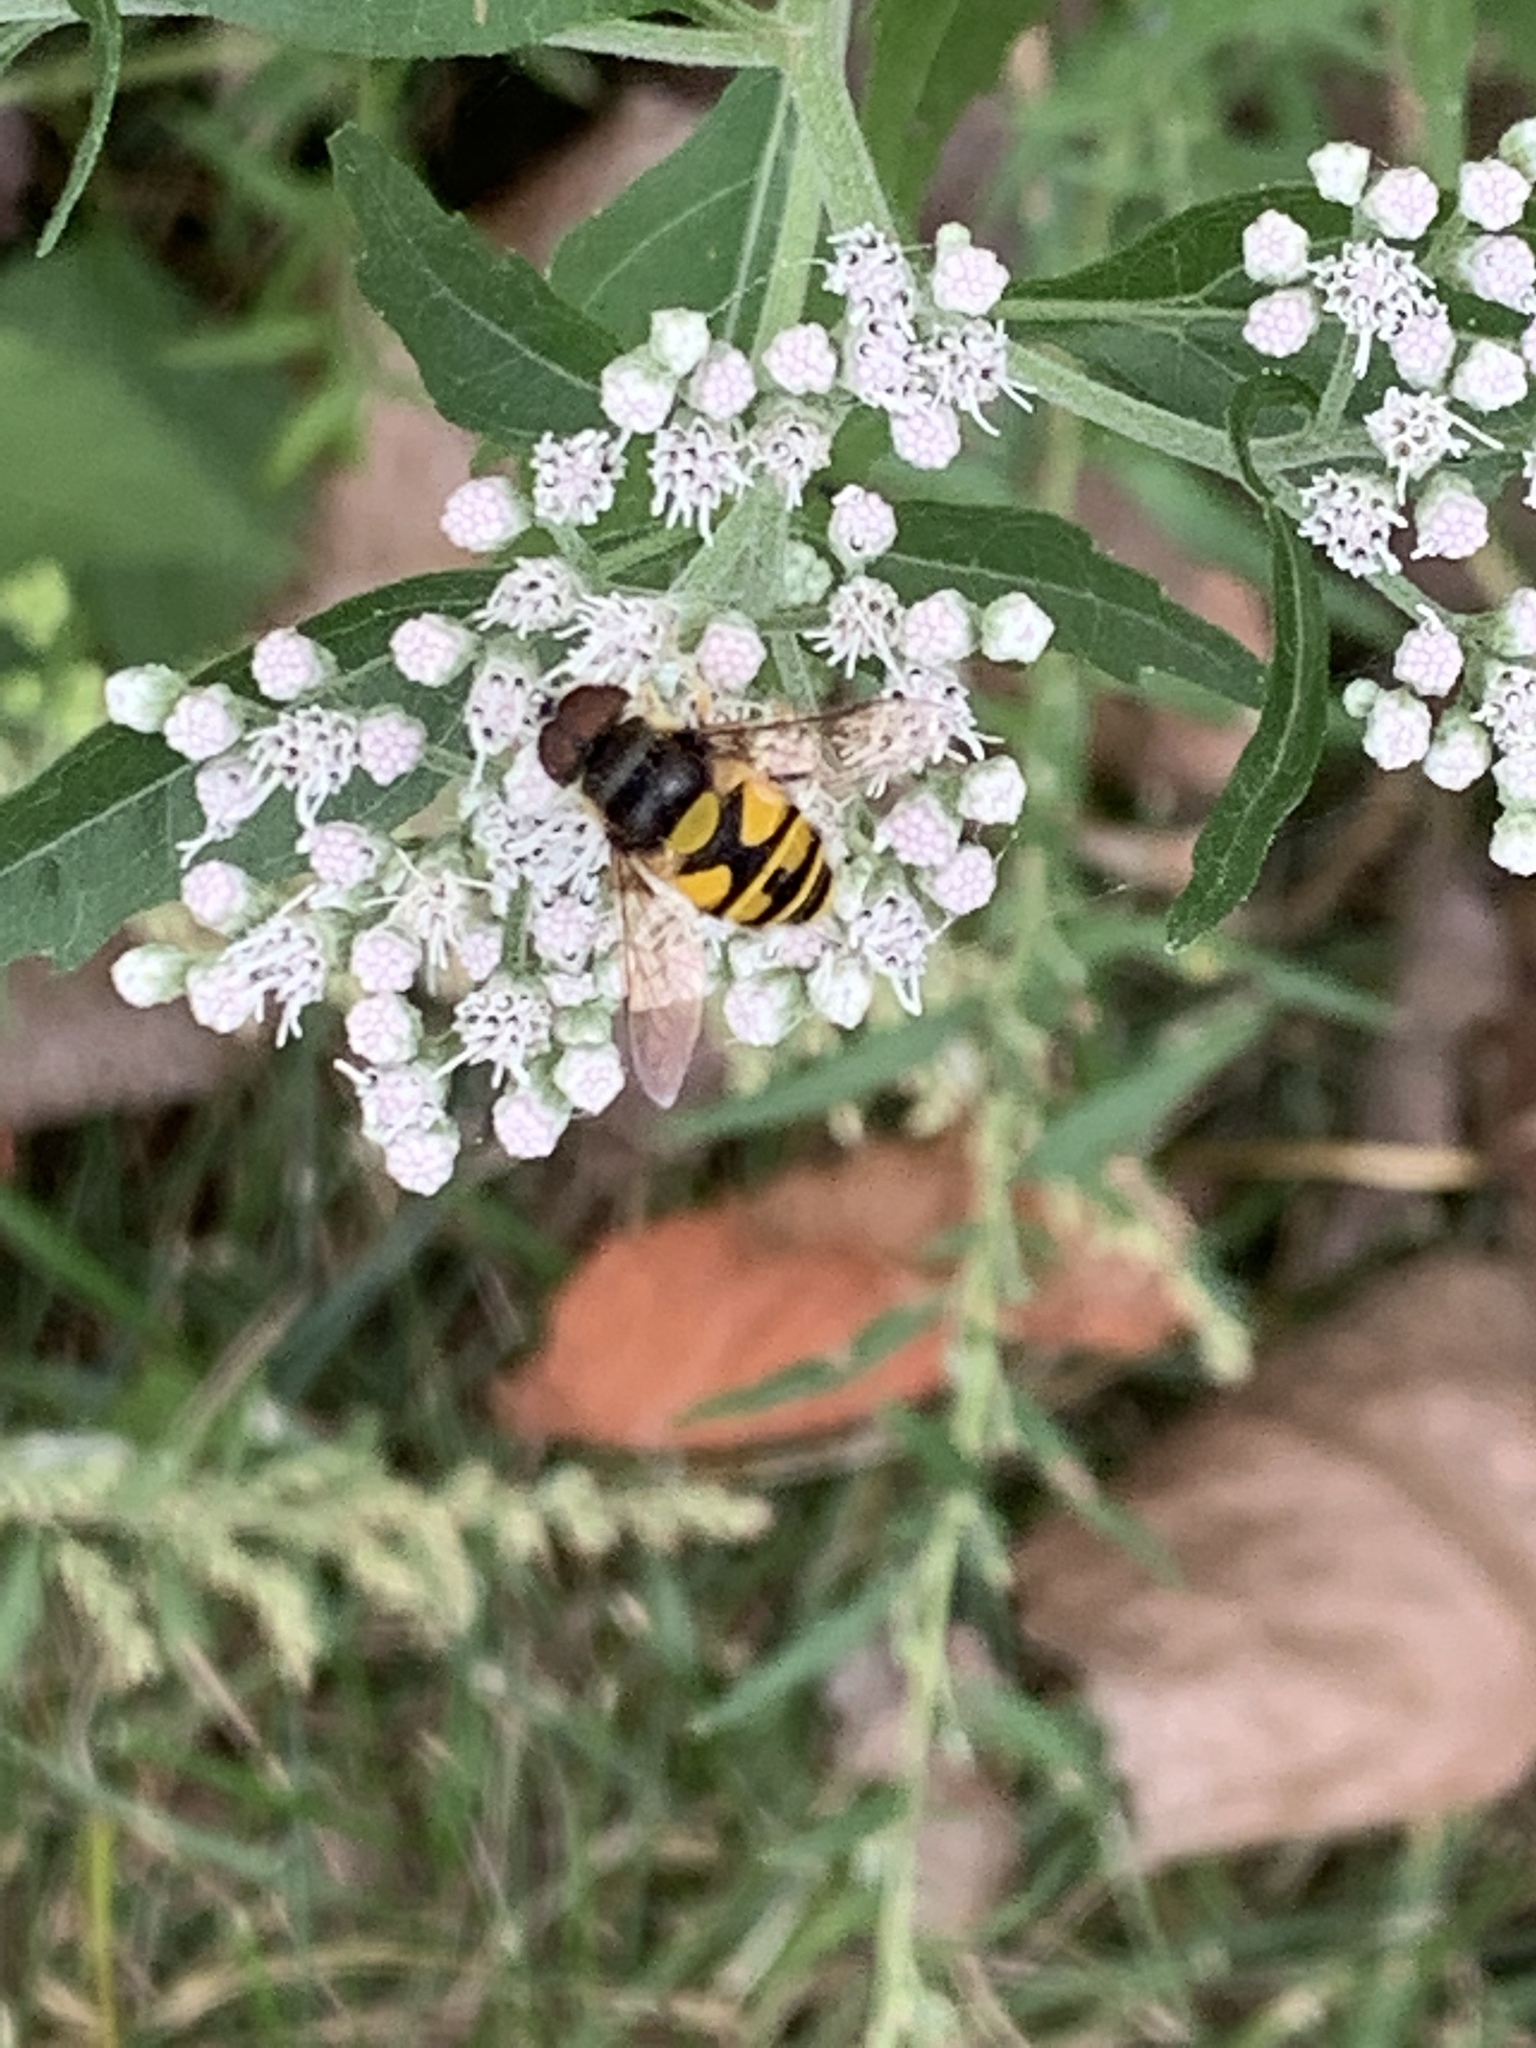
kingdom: Animalia
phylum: Arthropoda
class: Insecta
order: Diptera
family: Syrphidae
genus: Eristalis
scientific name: Eristalis transversa
